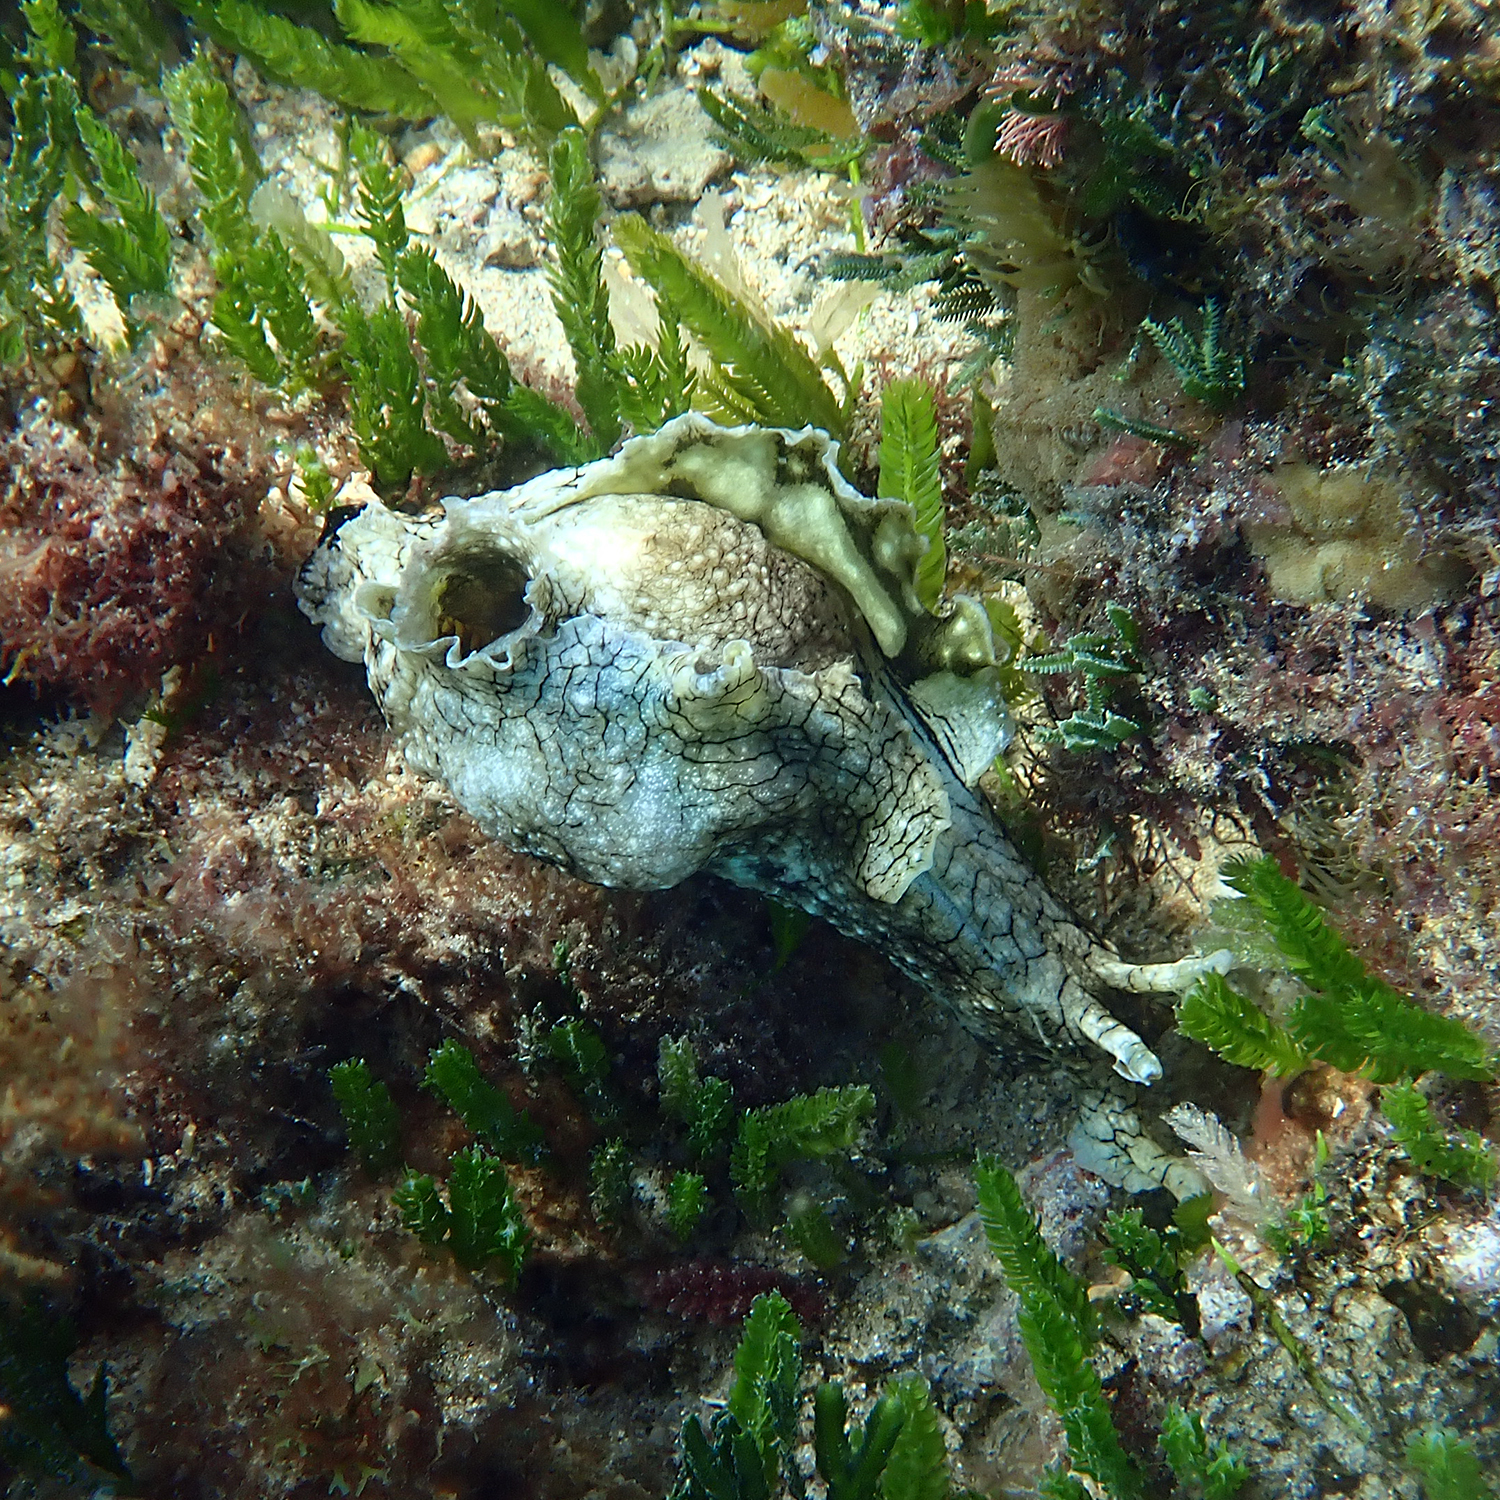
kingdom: Animalia
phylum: Mollusca
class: Gastropoda
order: Aplysiida
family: Aplysiidae
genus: Aplysia
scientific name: Aplysia argus
